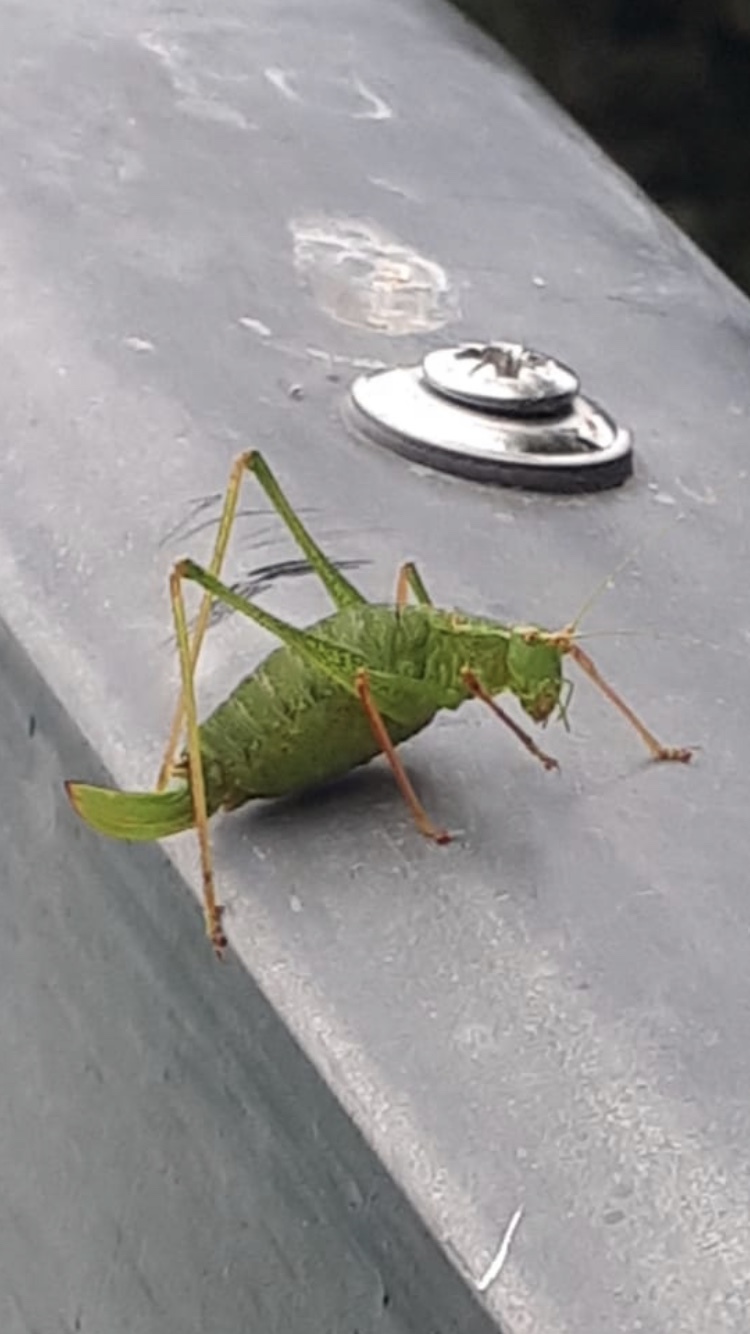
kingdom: Animalia
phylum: Arthropoda
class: Insecta
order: Orthoptera
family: Tettigoniidae
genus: Leptophyes
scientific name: Leptophyes punctatissima
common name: Speckled bush-cricket
